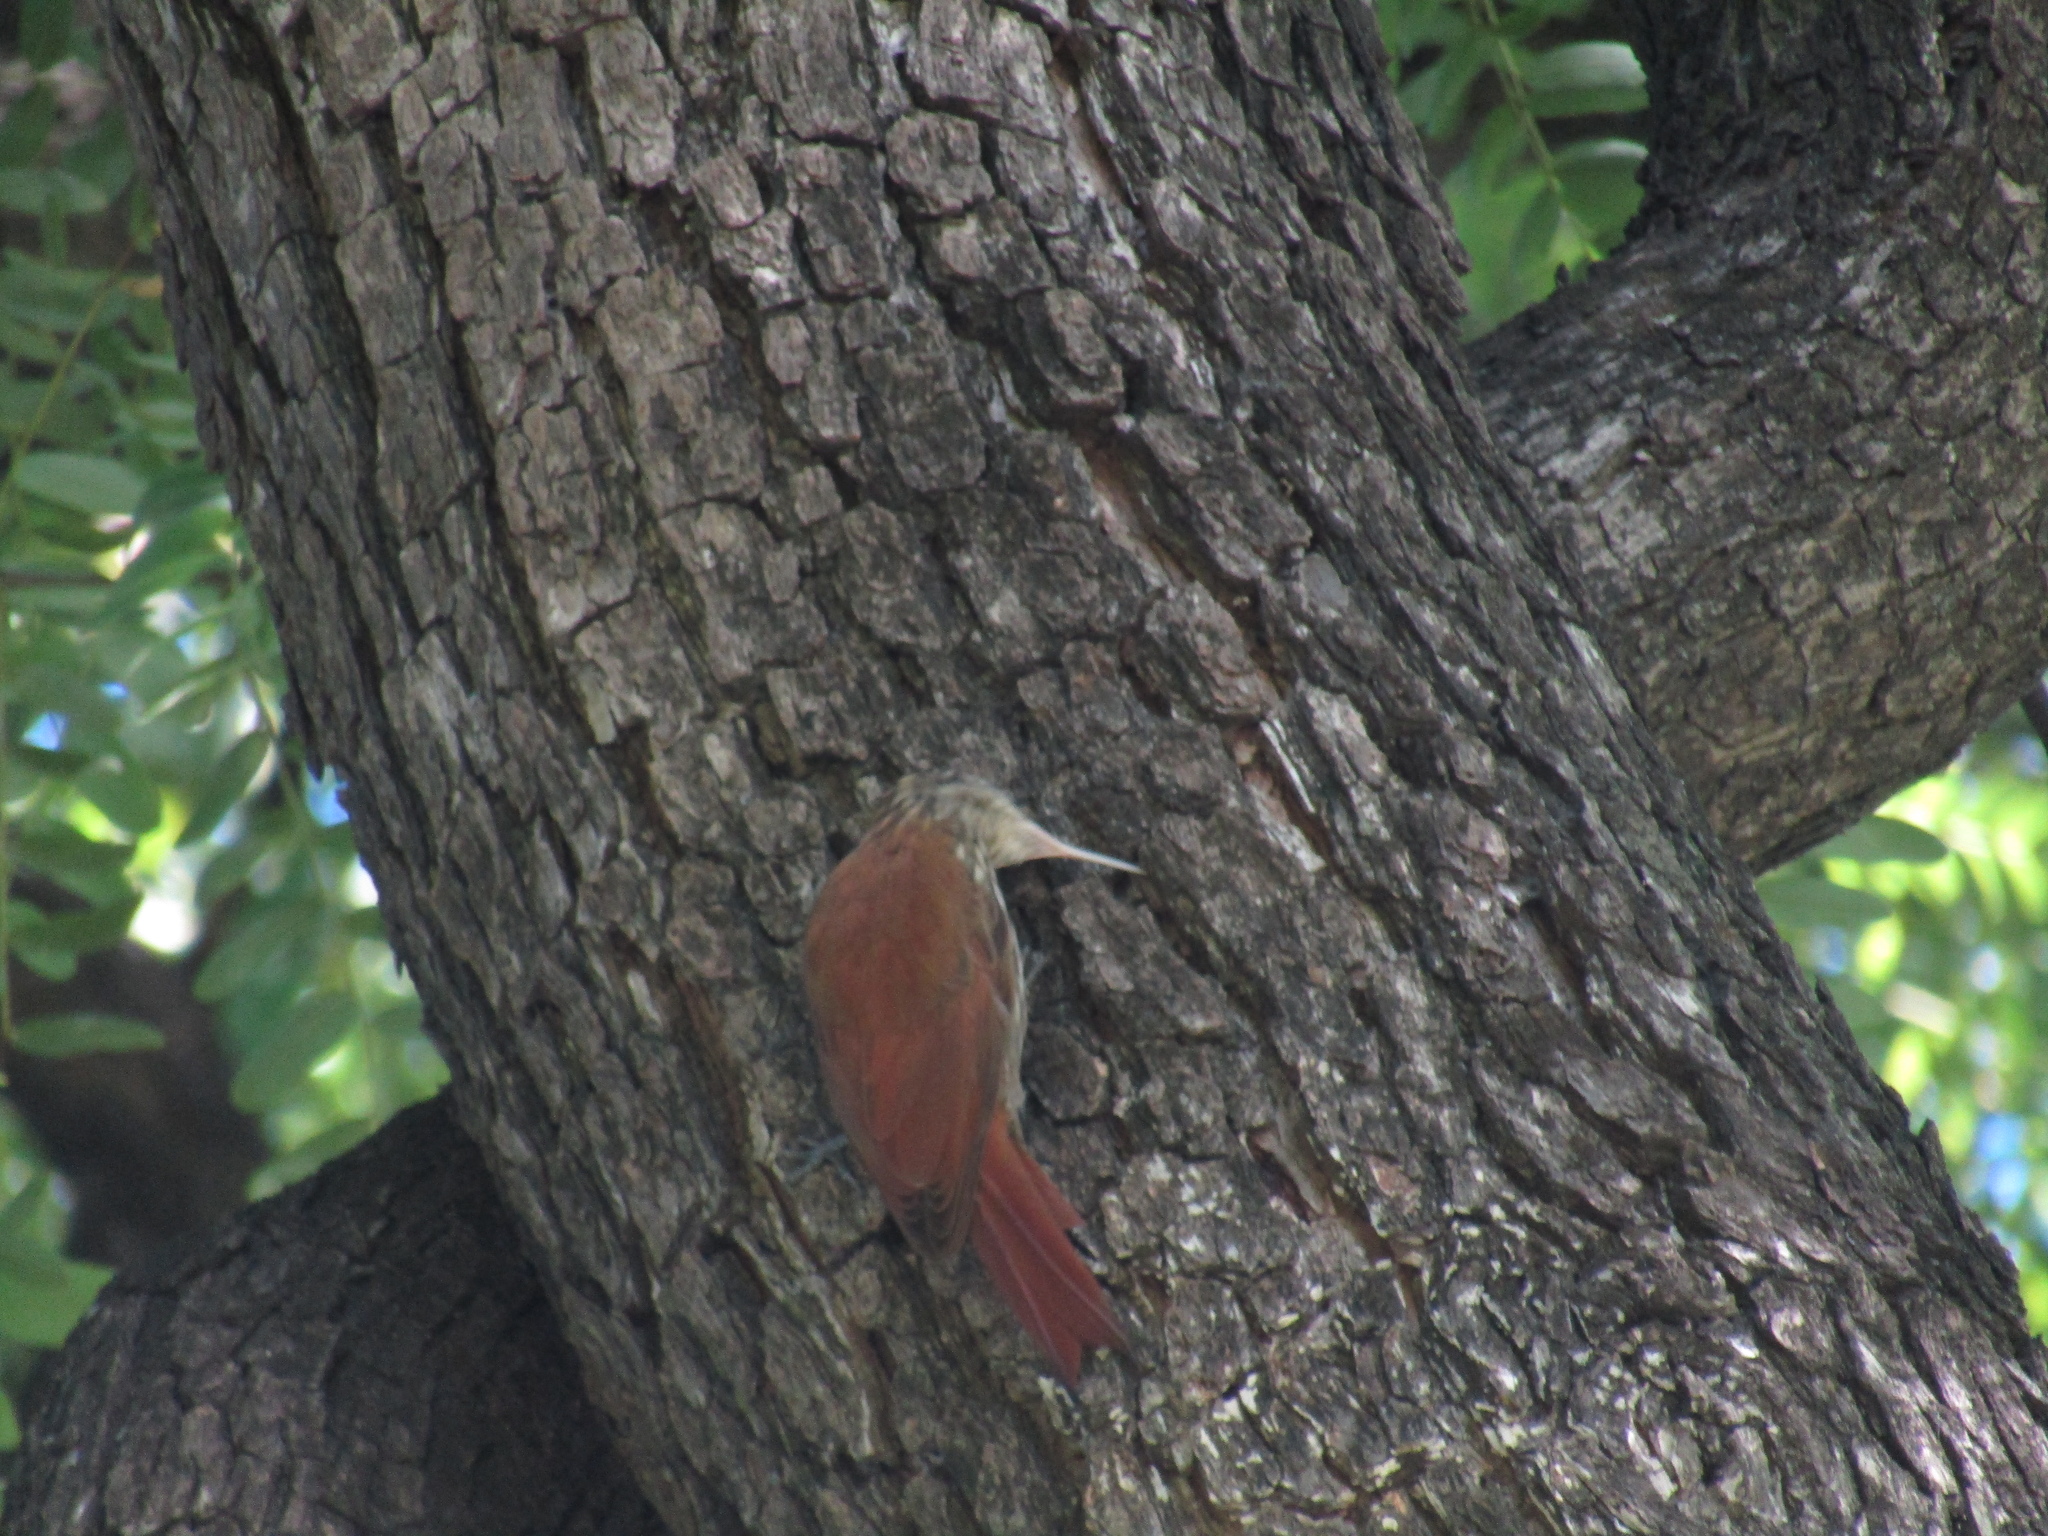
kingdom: Animalia
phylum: Chordata
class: Aves
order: Passeriformes
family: Furnariidae
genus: Lepidocolaptes
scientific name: Lepidocolaptes angustirostris
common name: Narrow-billed woodcreeper
